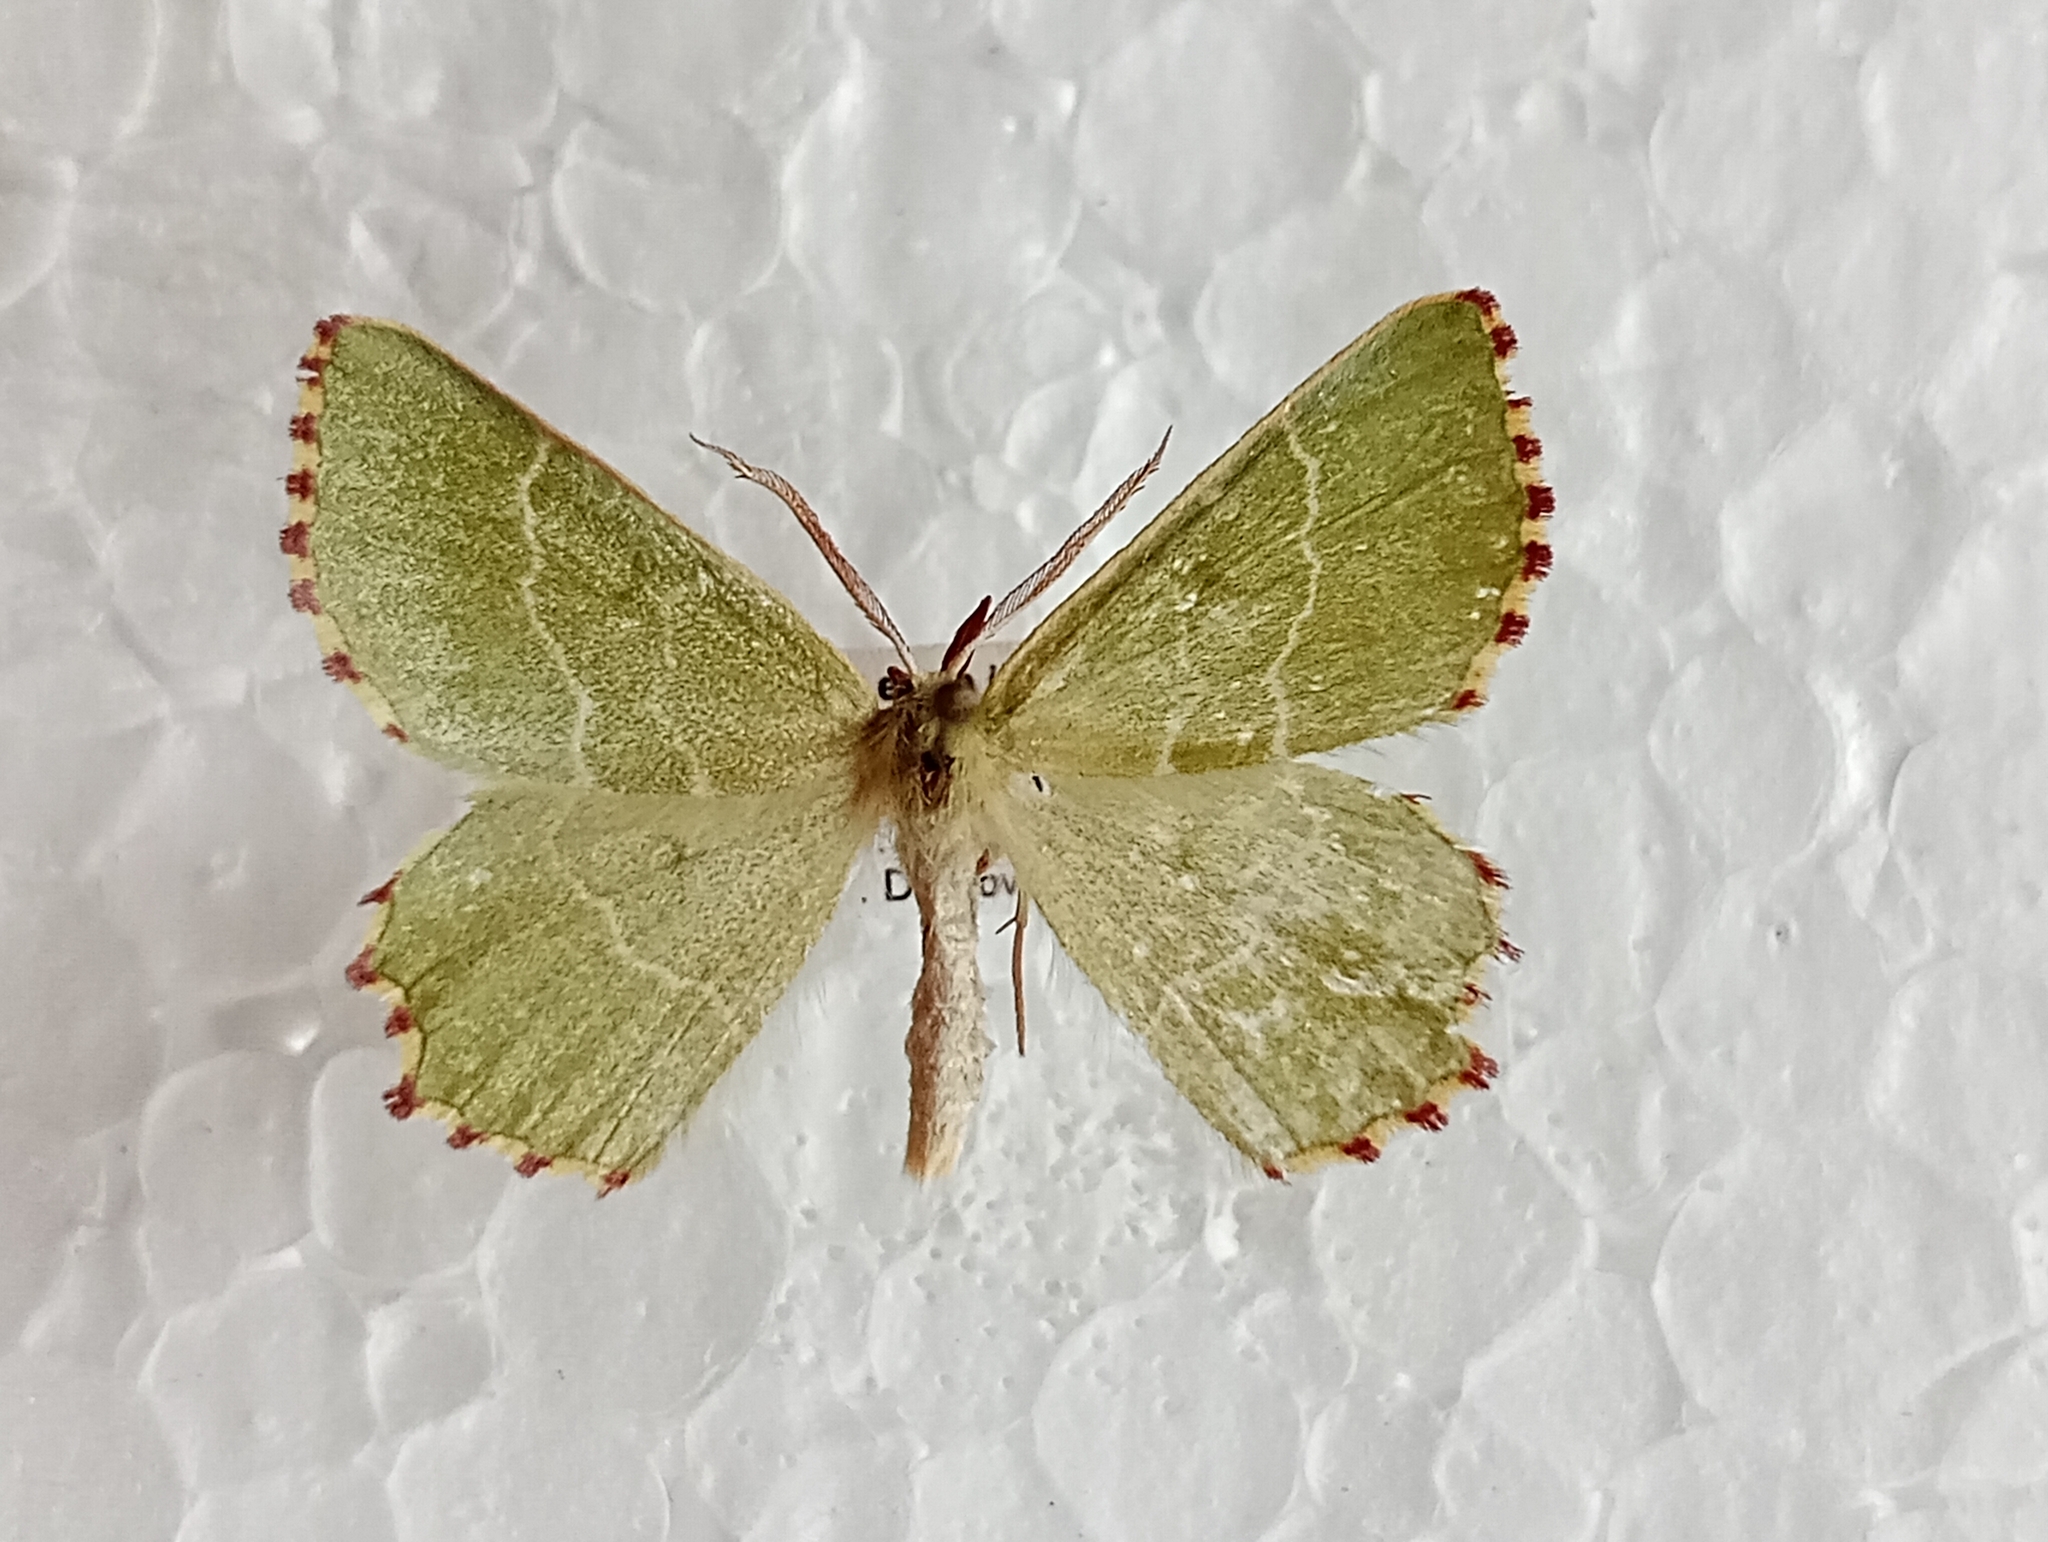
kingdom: Animalia
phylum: Arthropoda
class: Insecta
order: Lepidoptera
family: Geometridae
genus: Thalera
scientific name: Thalera fimbrialis
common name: Sussex emerald
